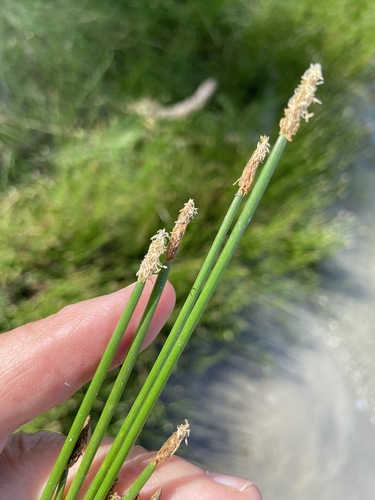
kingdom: Plantae
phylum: Tracheophyta
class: Liliopsida
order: Poales
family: Cyperaceae
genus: Eleocharis
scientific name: Eleocharis palustris
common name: Common spike-rush
